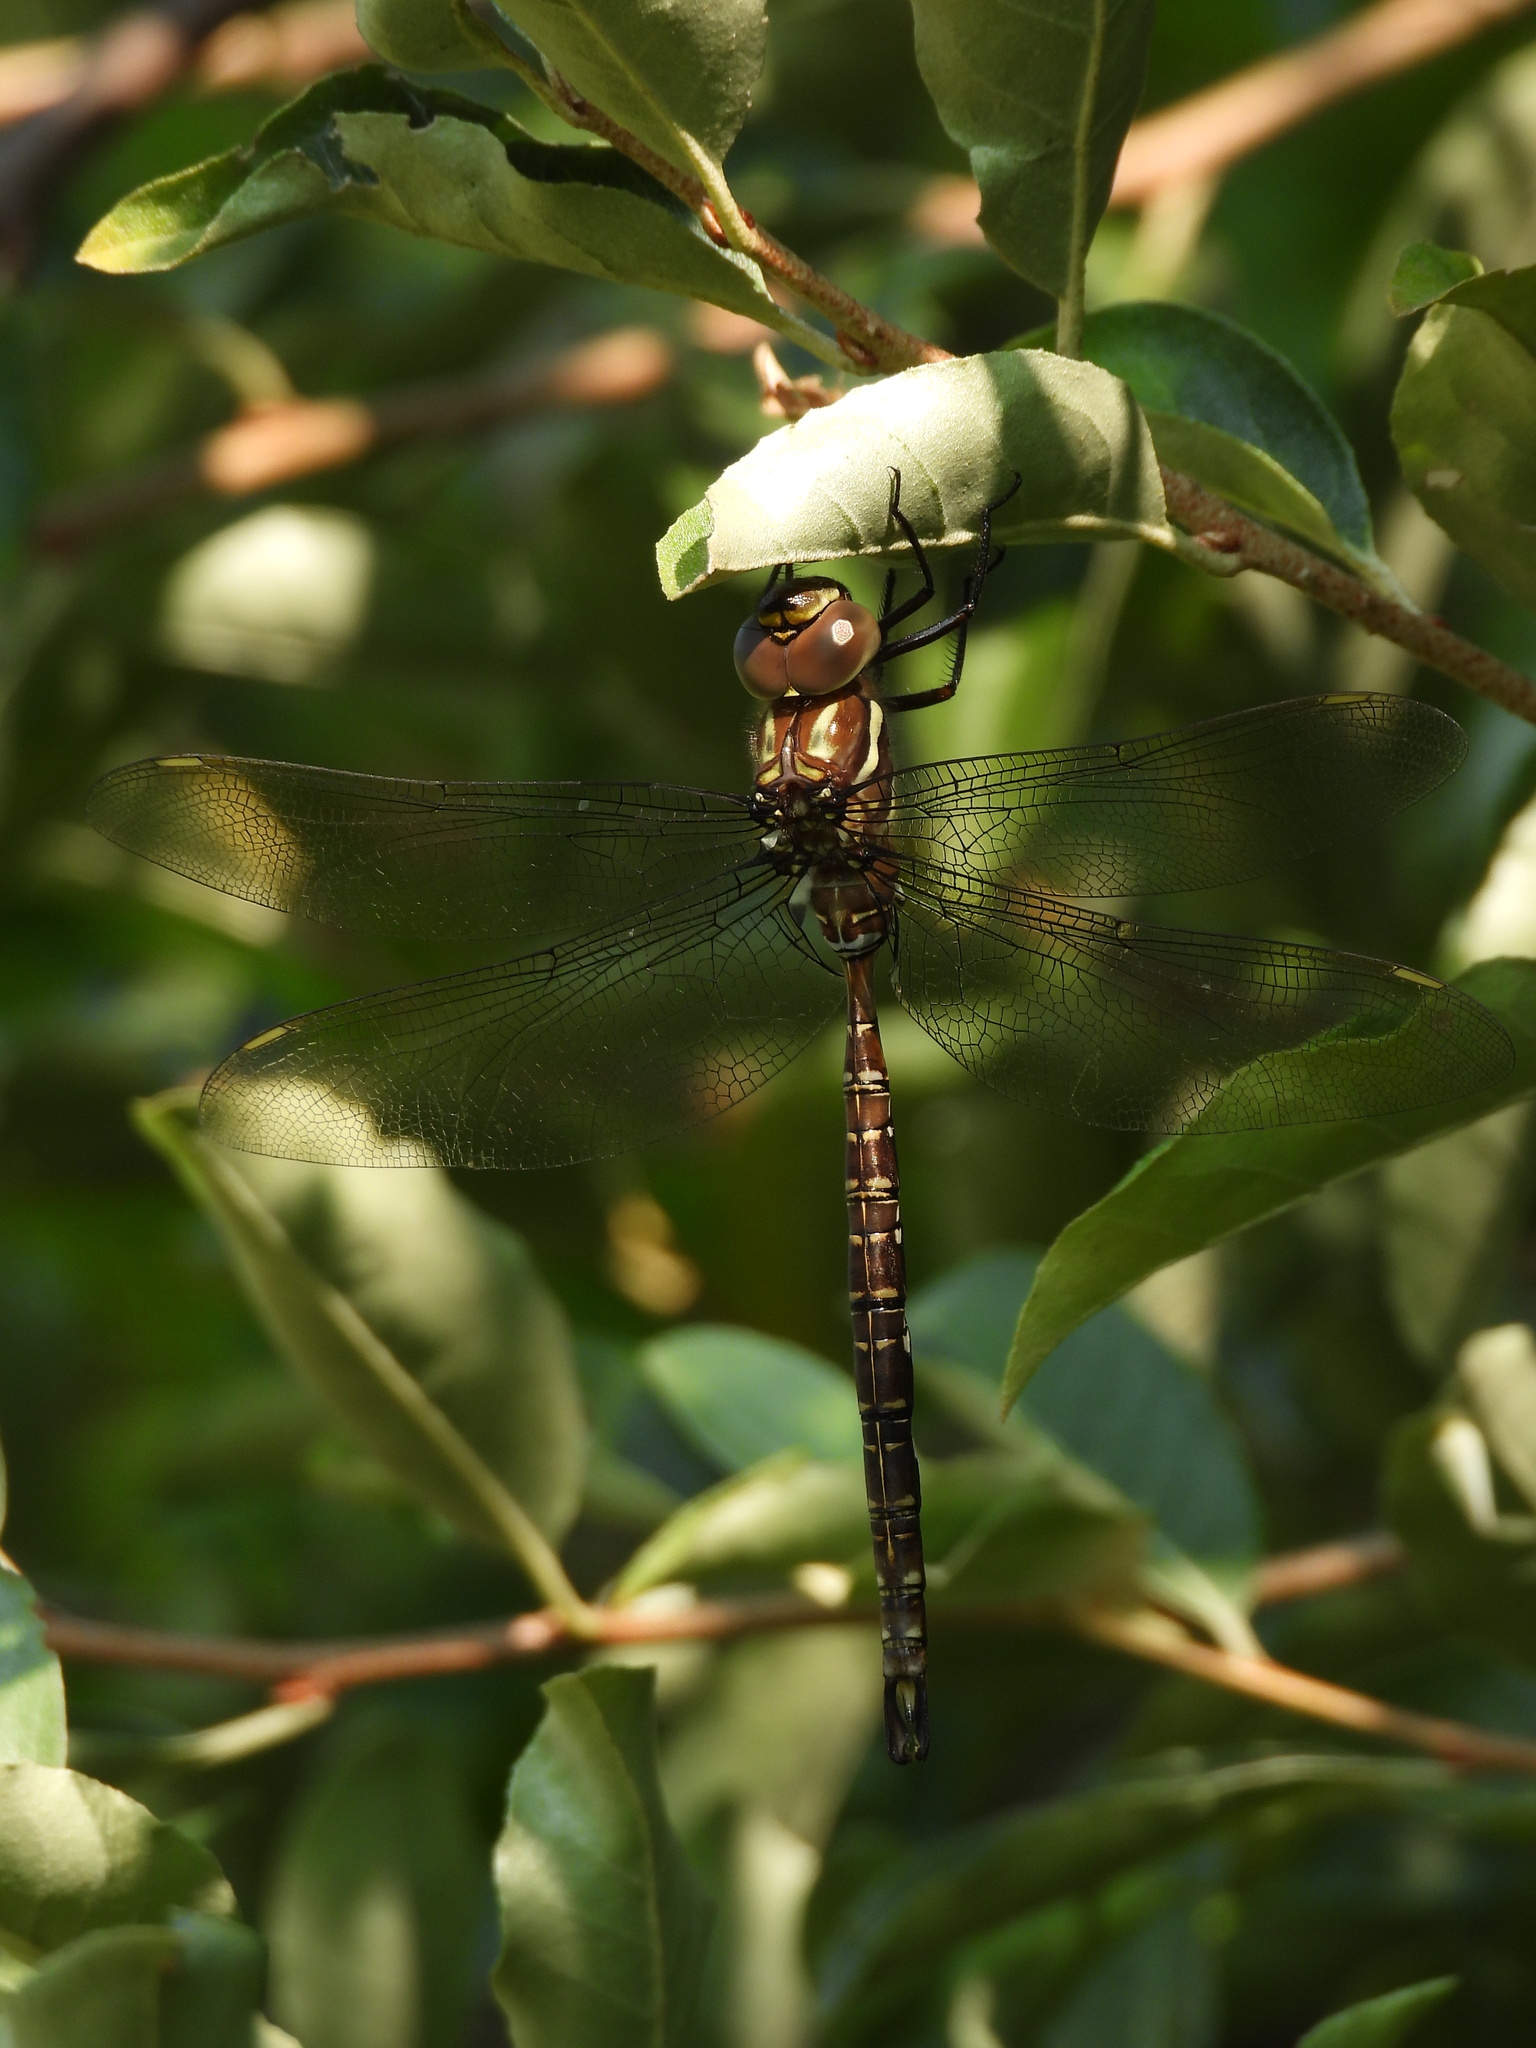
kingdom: Animalia
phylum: Arthropoda
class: Insecta
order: Odonata
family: Aeshnidae
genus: Aeshna
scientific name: Aeshna umbrosa
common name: Shadow darner
